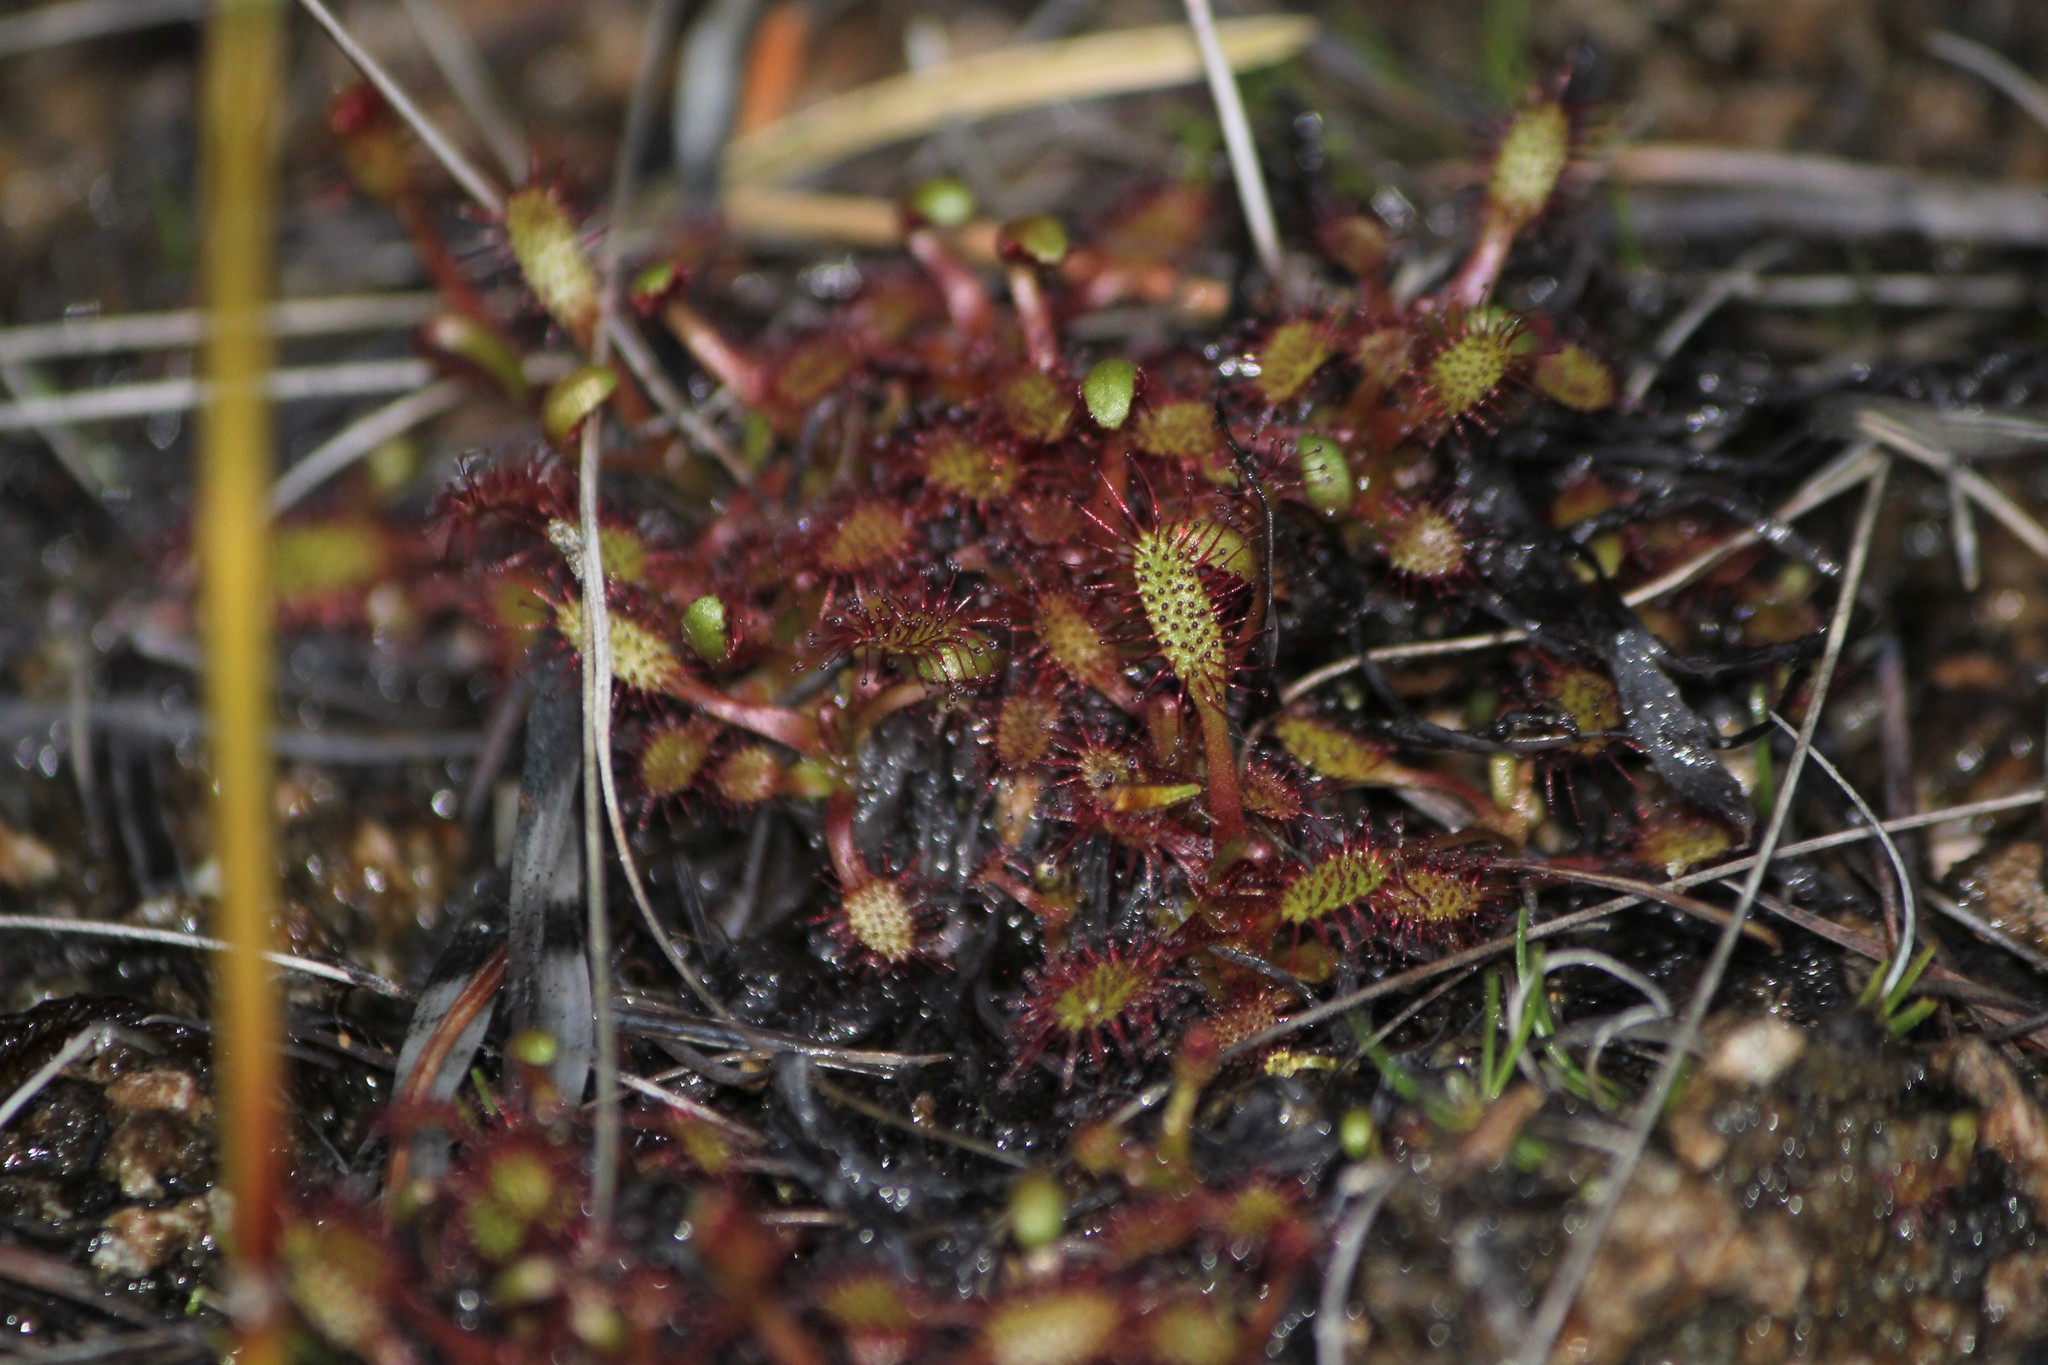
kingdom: Plantae
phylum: Tracheophyta
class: Magnoliopsida
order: Caryophyllales
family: Droseraceae
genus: Drosera
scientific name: Drosera linearis
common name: Linear-leaved sundew
